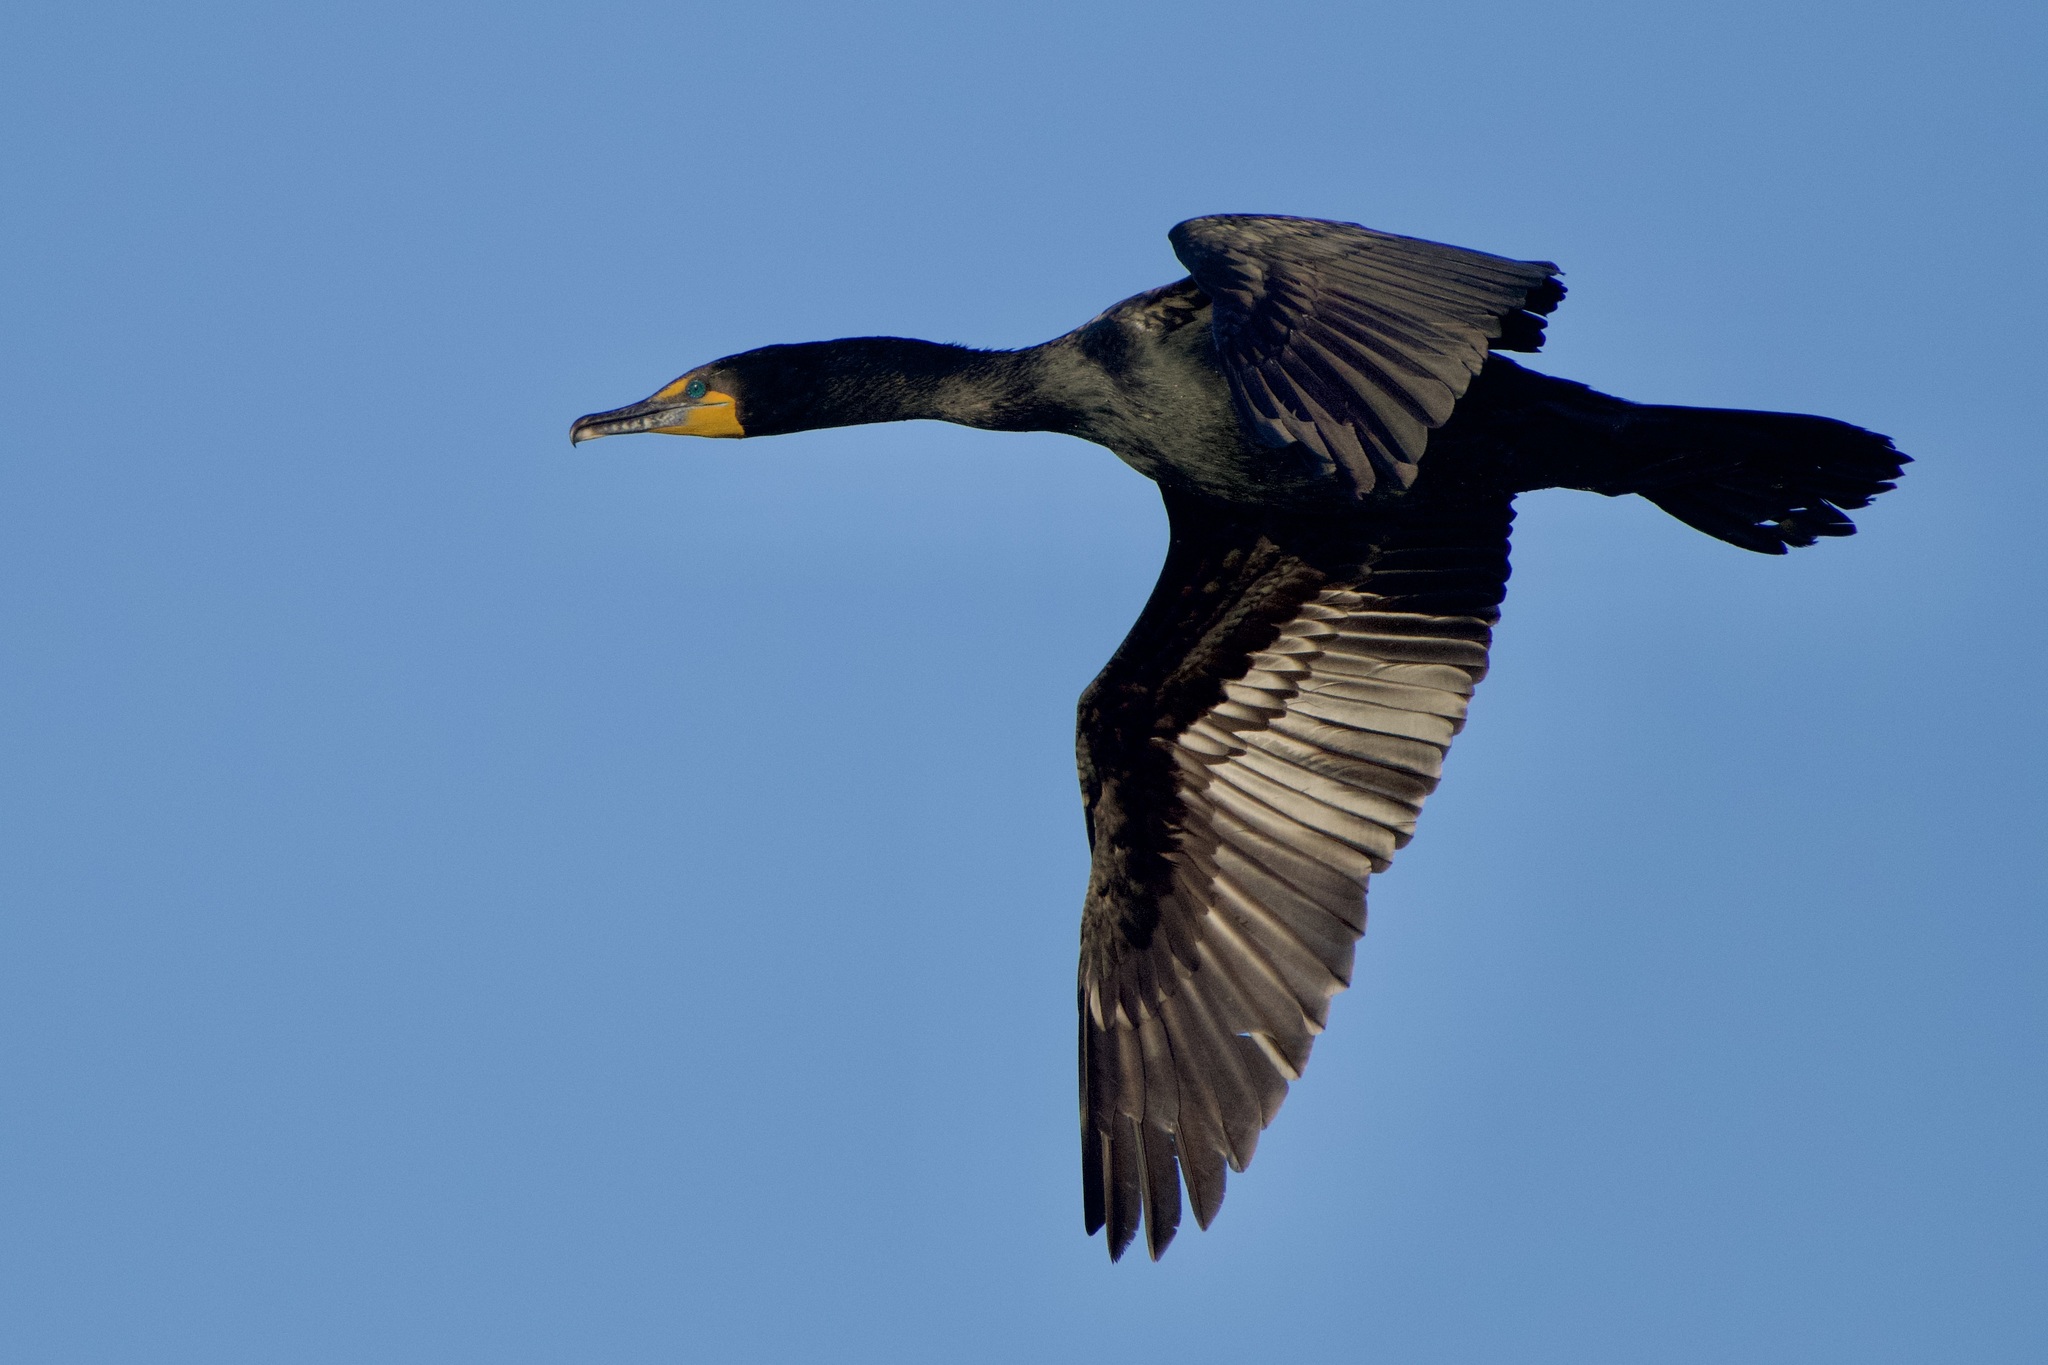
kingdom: Animalia
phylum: Chordata
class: Aves
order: Suliformes
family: Phalacrocoracidae
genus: Phalacrocorax
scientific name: Phalacrocorax auritus
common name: Double-crested cormorant
